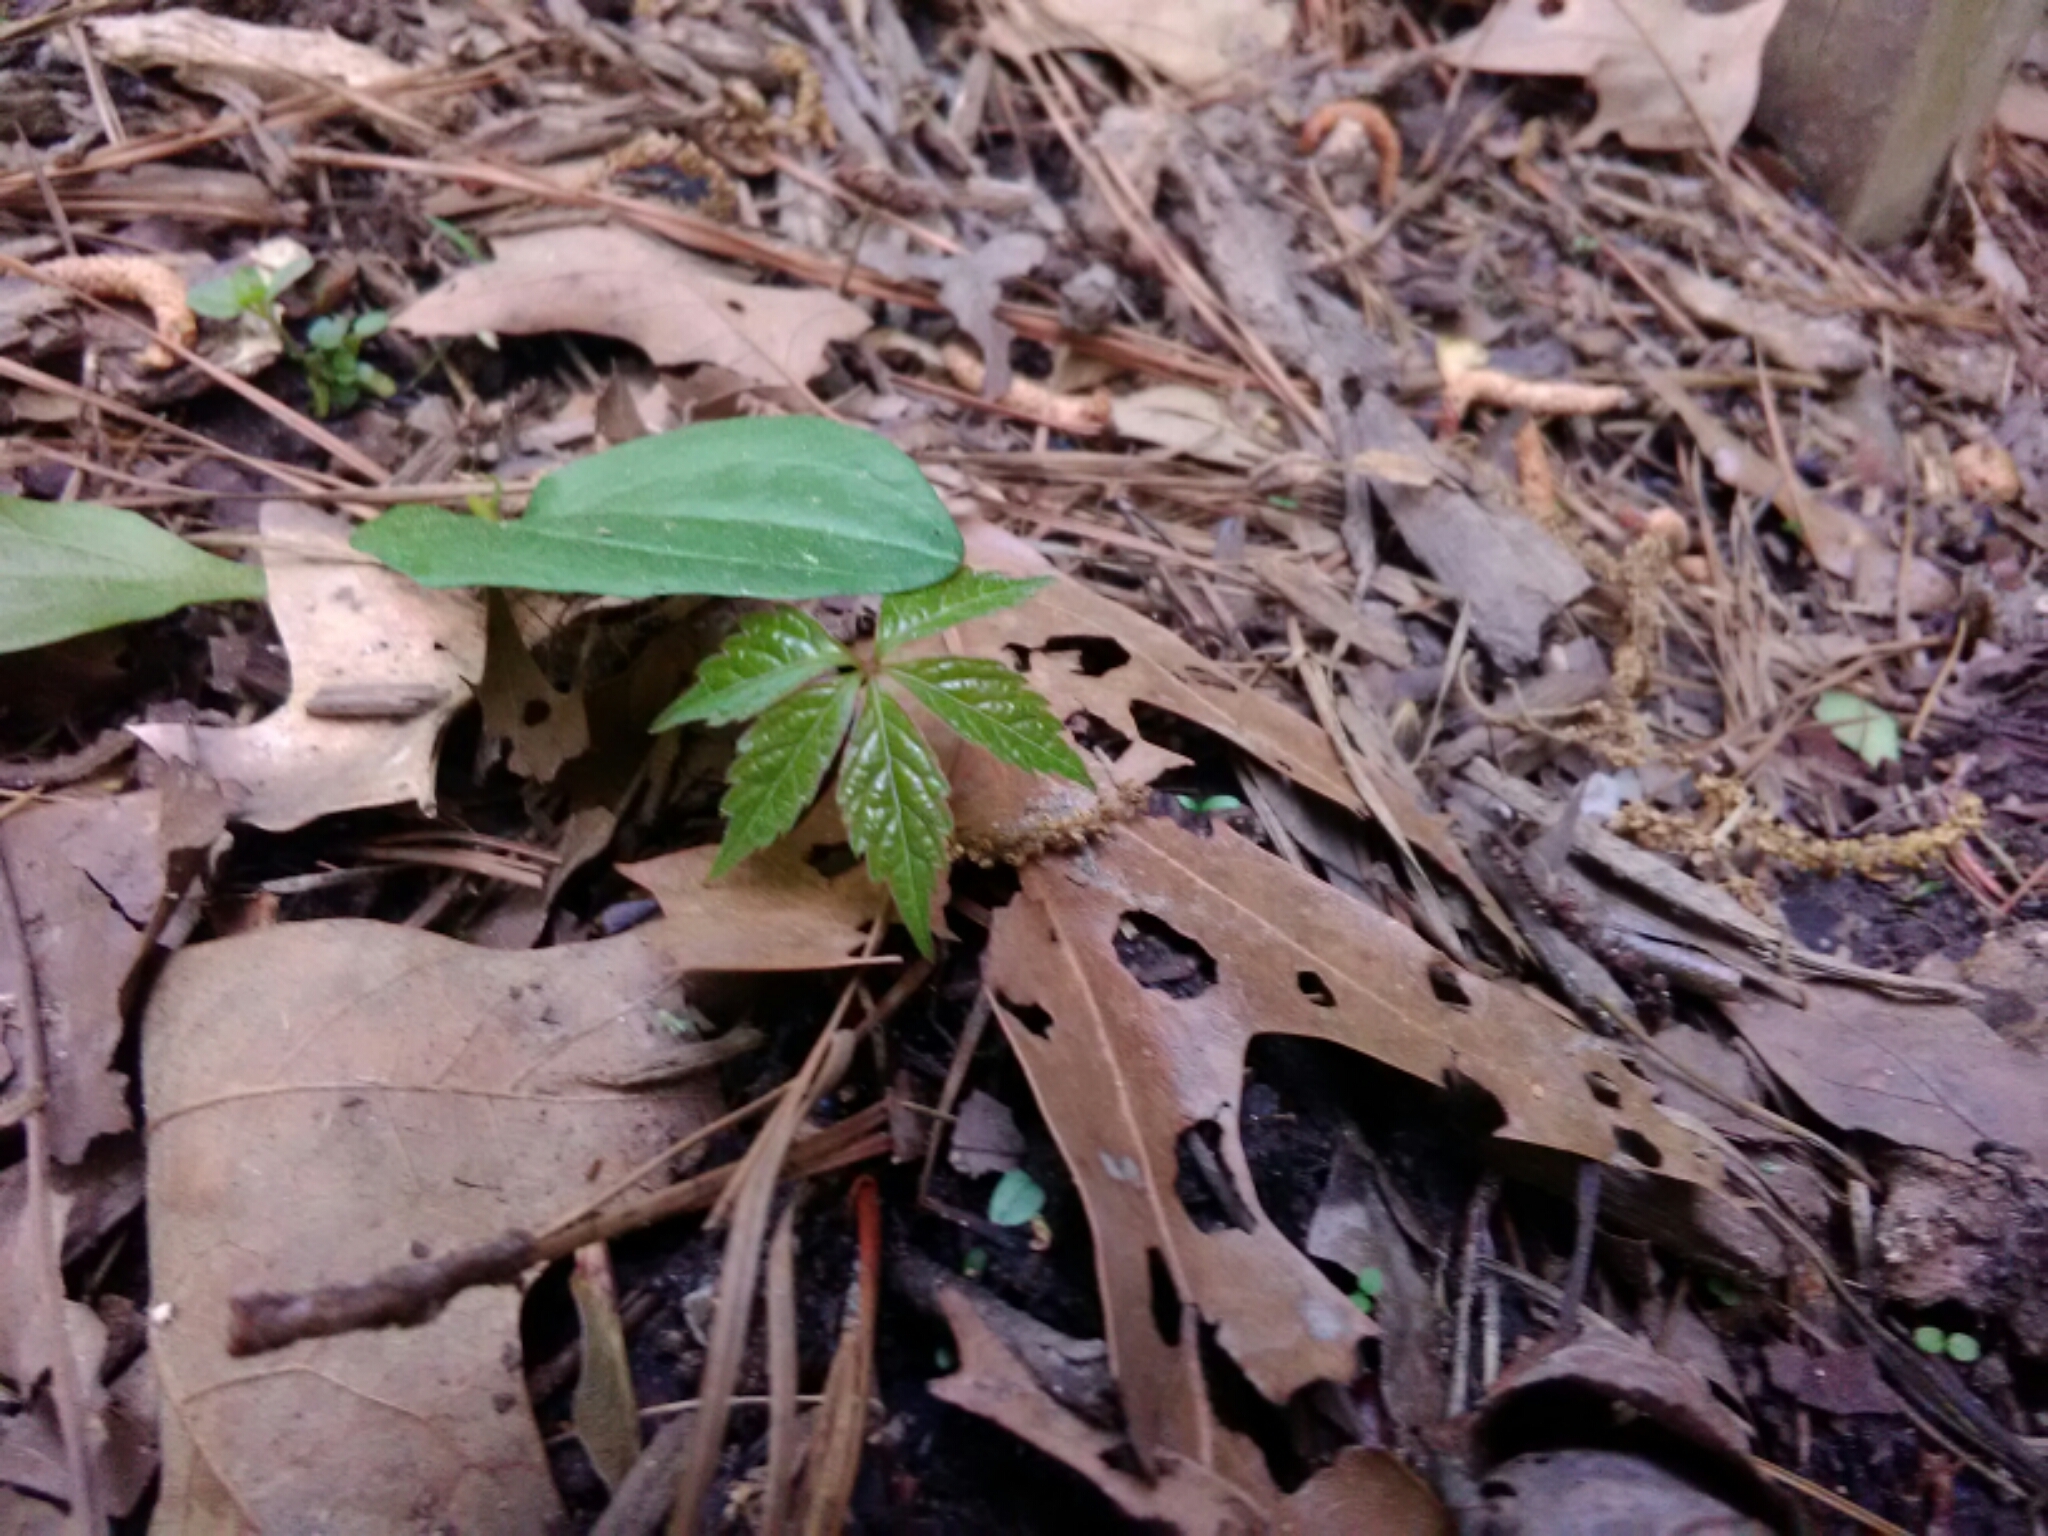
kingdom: Plantae
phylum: Tracheophyta
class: Magnoliopsida
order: Vitales
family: Vitaceae
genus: Parthenocissus
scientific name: Parthenocissus quinquefolia
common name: Virginia-creeper
